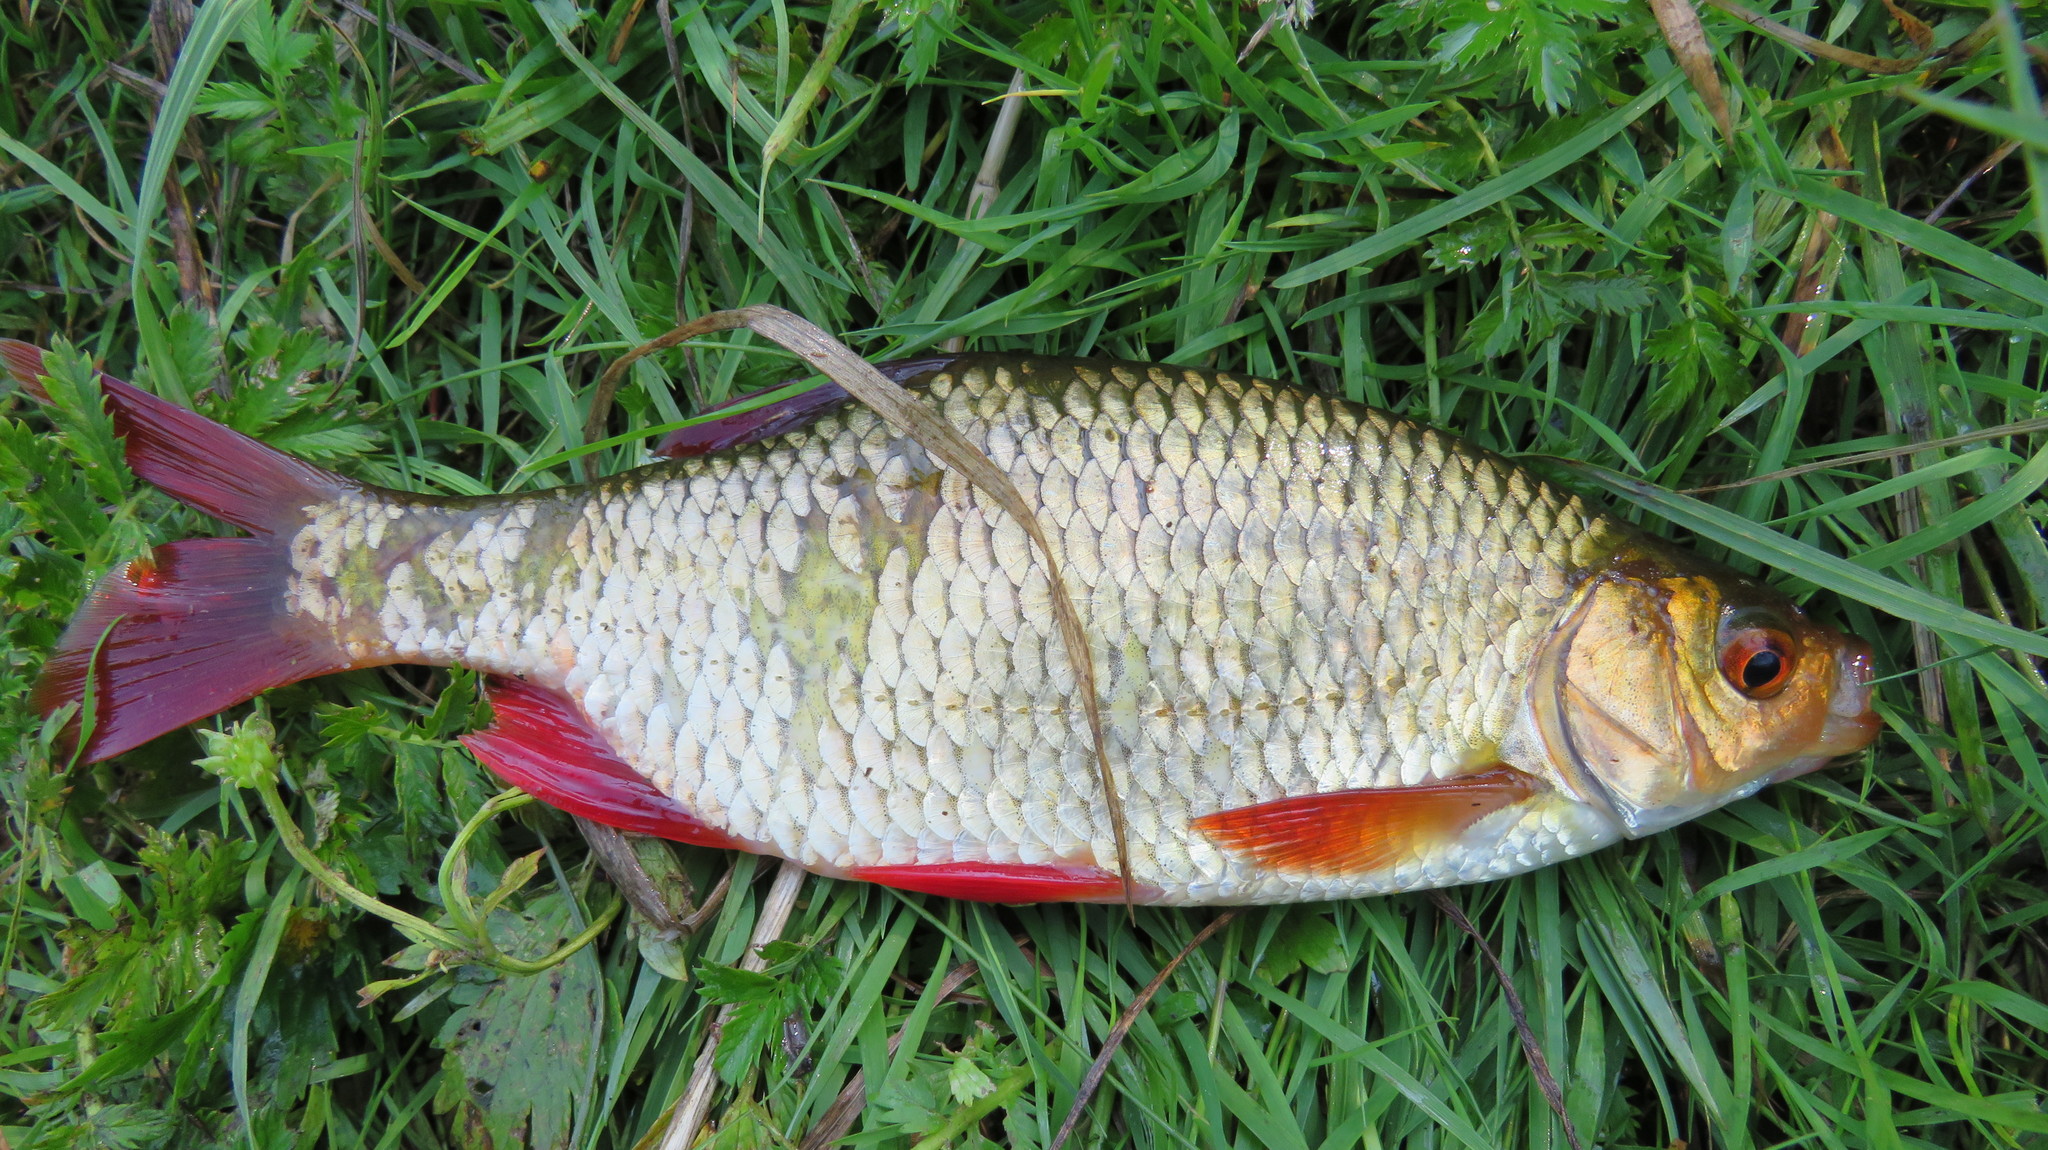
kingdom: Animalia
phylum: Chordata
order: Cypriniformes
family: Cyprinidae
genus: Scardinius
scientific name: Scardinius erythrophthalmus
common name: Rudd
